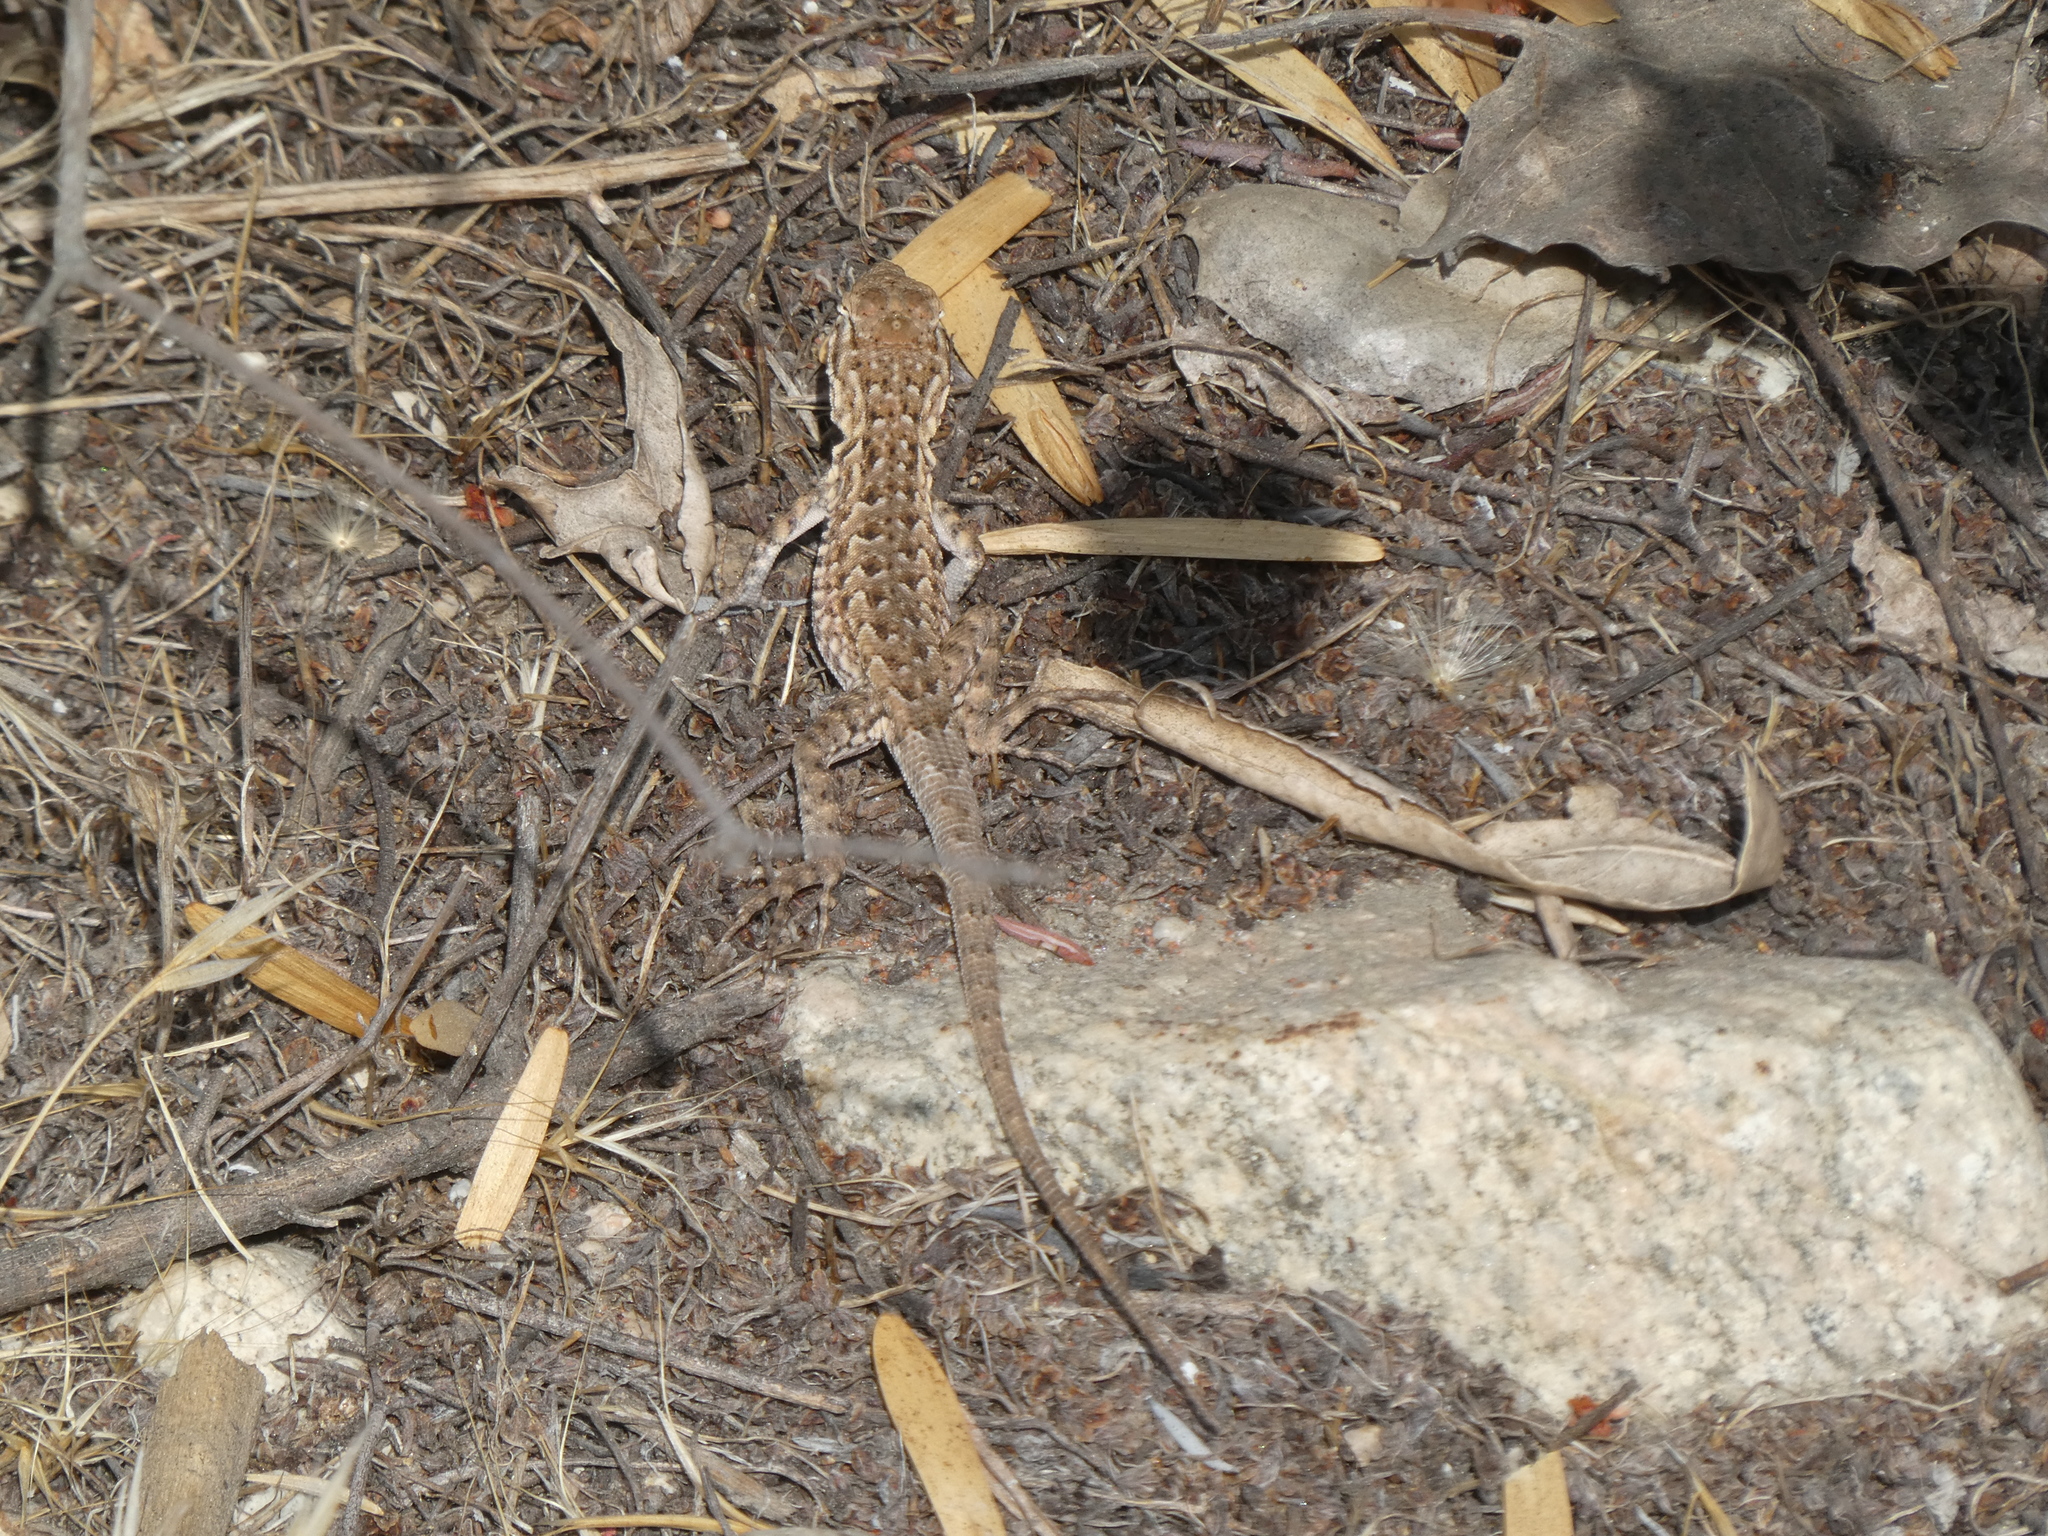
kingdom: Animalia
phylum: Chordata
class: Squamata
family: Phrynosomatidae
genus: Uta
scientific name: Uta stansburiana
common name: Side-blotched lizard
